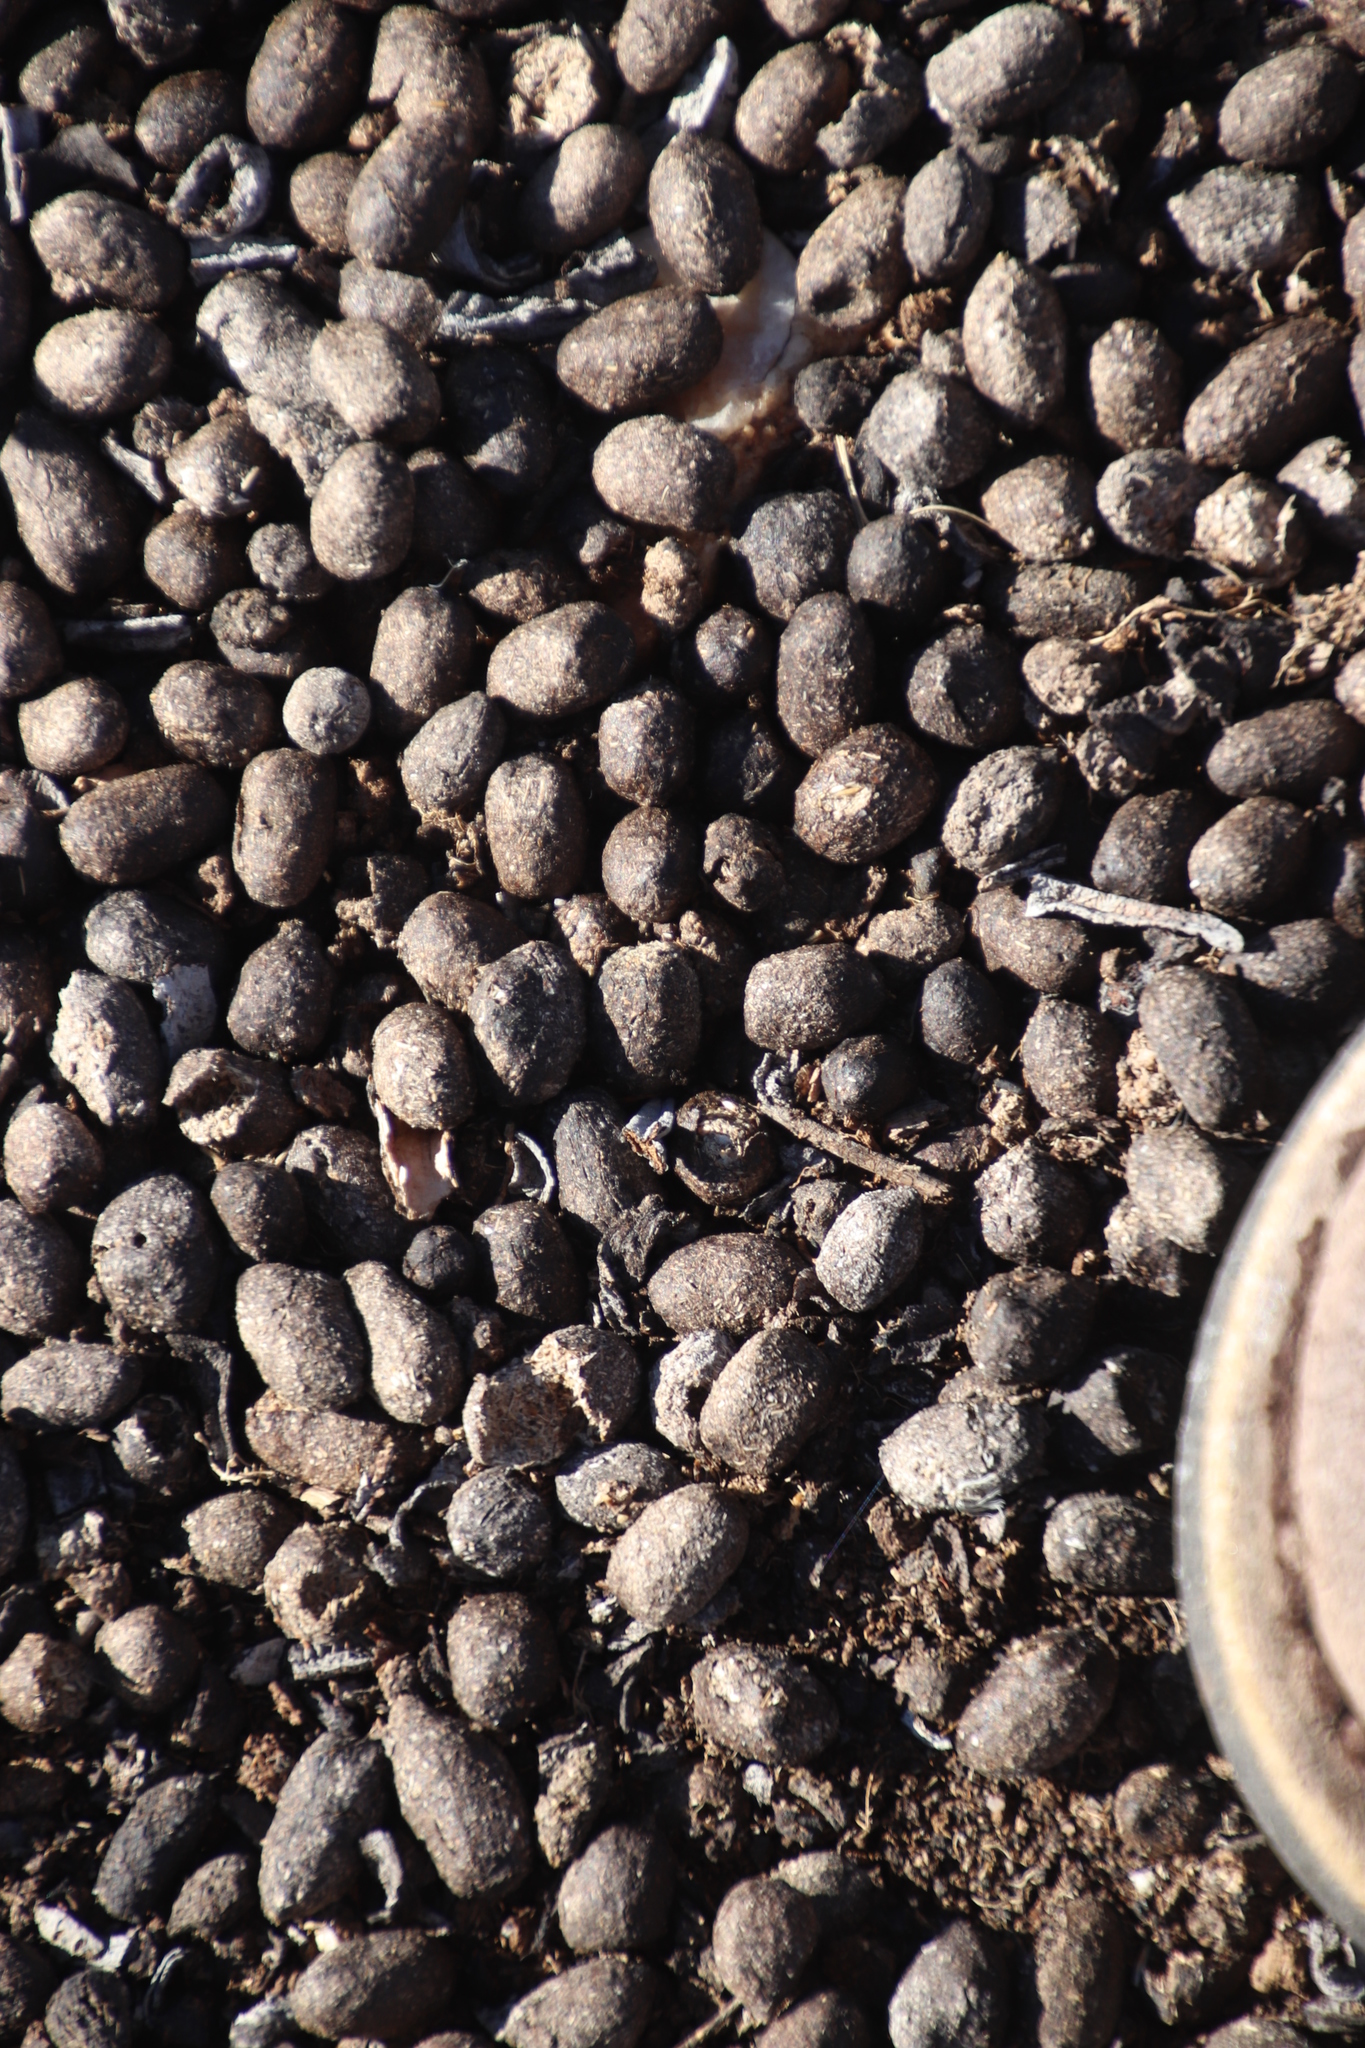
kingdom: Animalia
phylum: Chordata
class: Mammalia
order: Artiodactyla
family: Bovidae
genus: Oreotragus
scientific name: Oreotragus oreotragus
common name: Klipspringer
